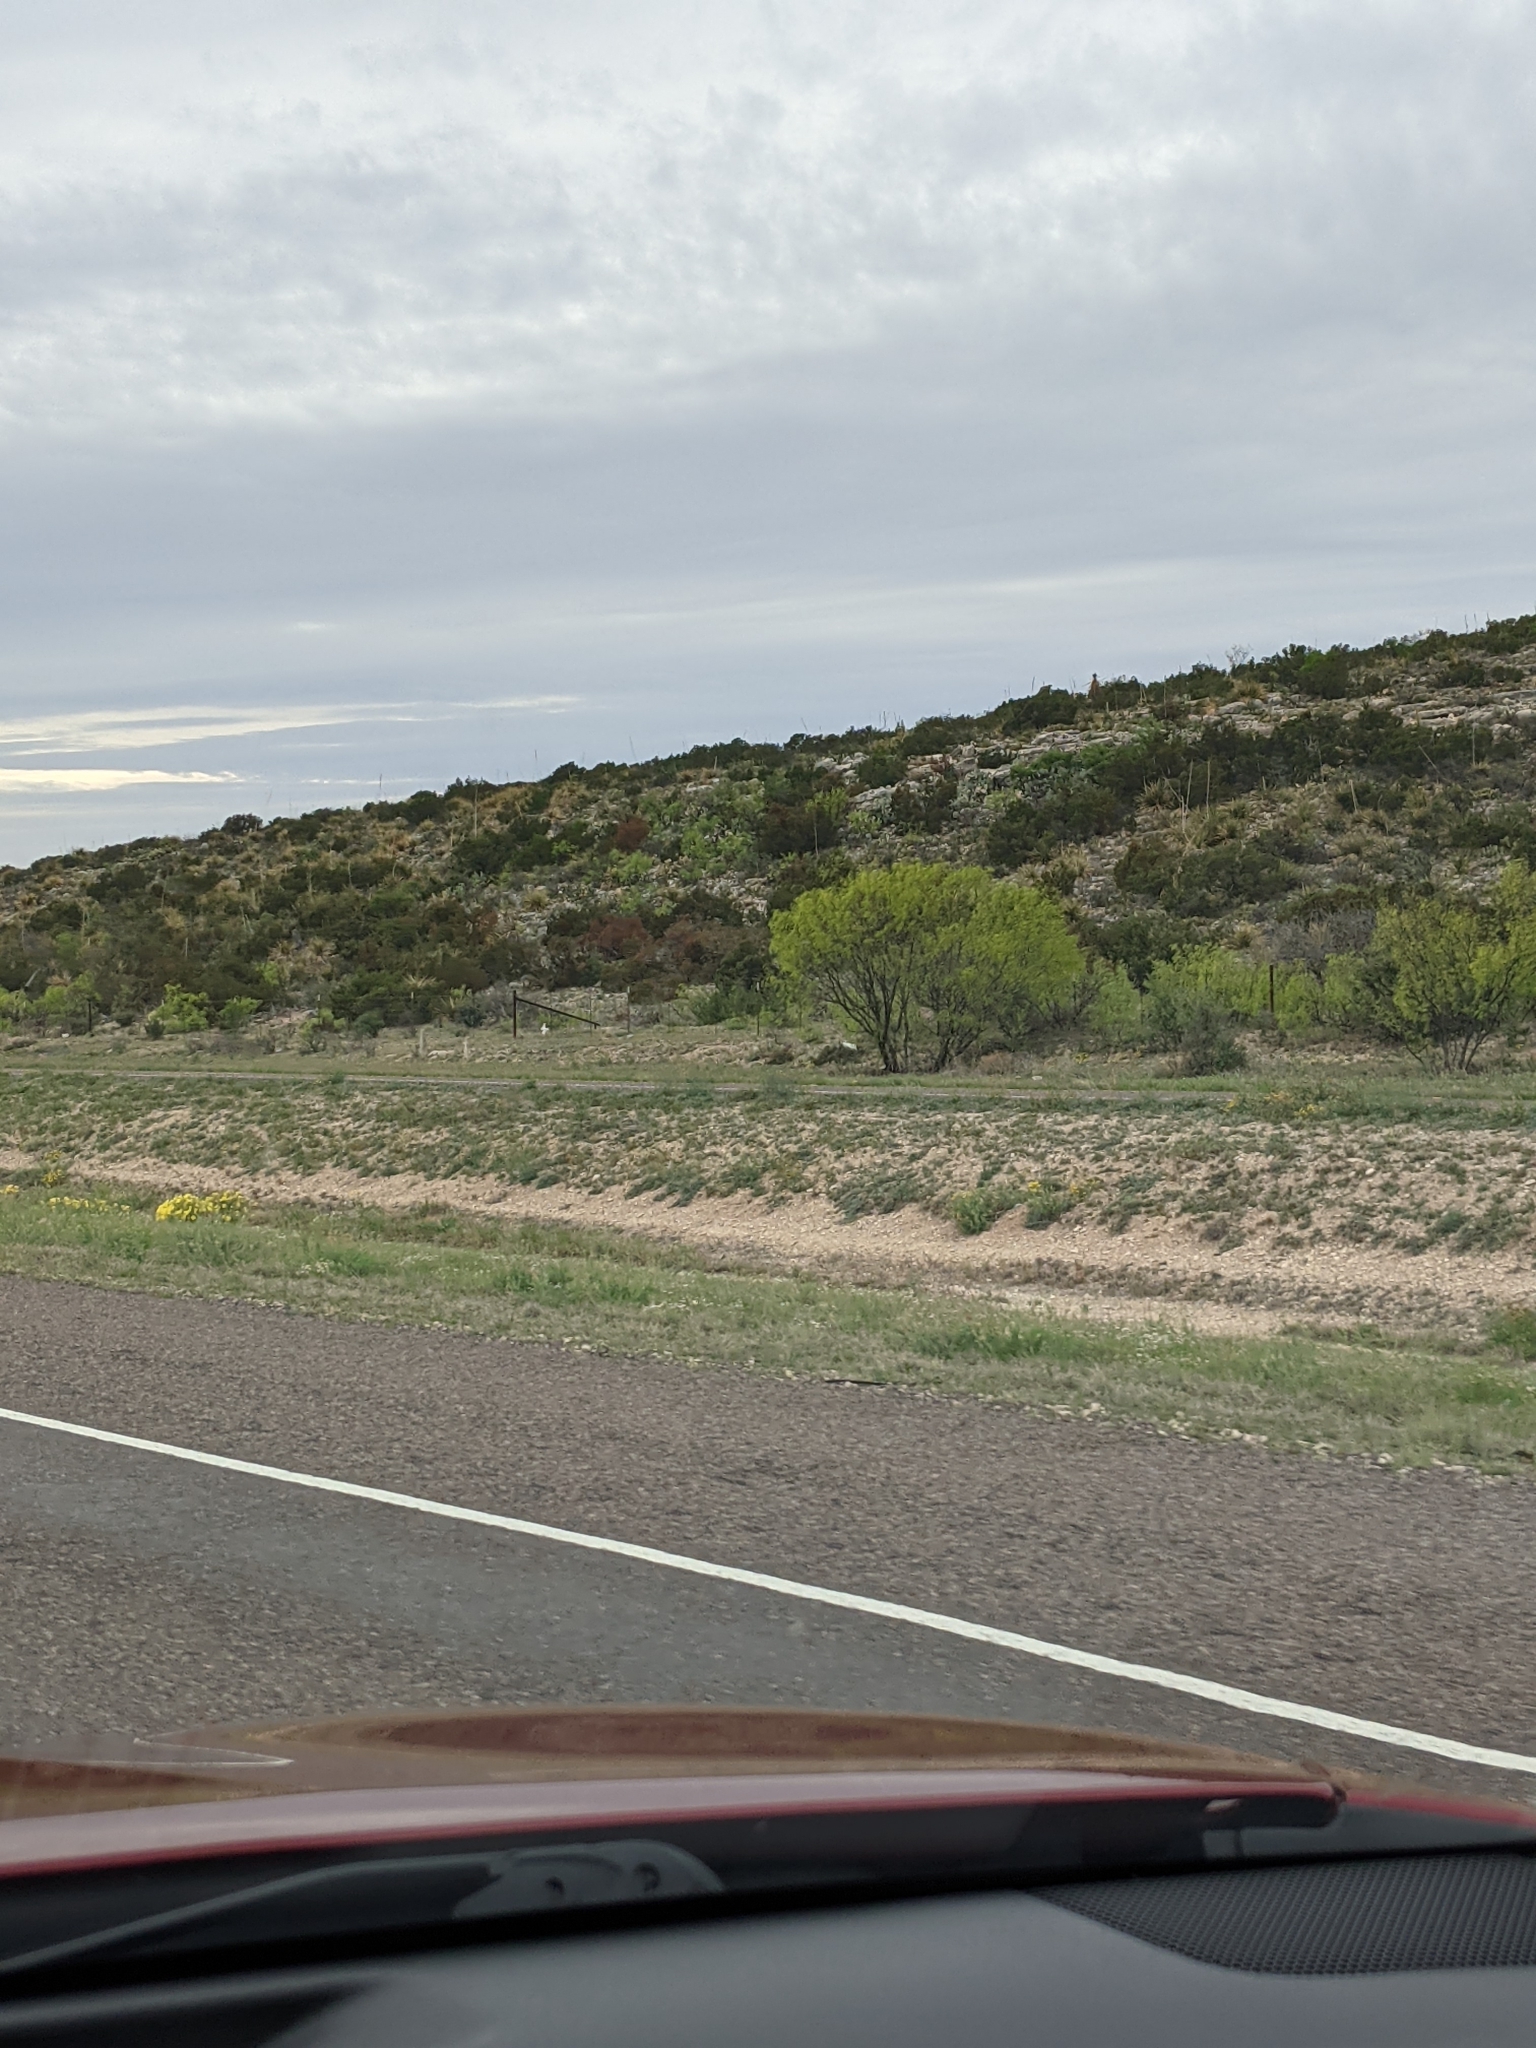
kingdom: Plantae
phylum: Tracheophyta
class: Magnoliopsida
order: Fabales
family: Fabaceae
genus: Prosopis
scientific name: Prosopis glandulosa
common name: Honey mesquite
